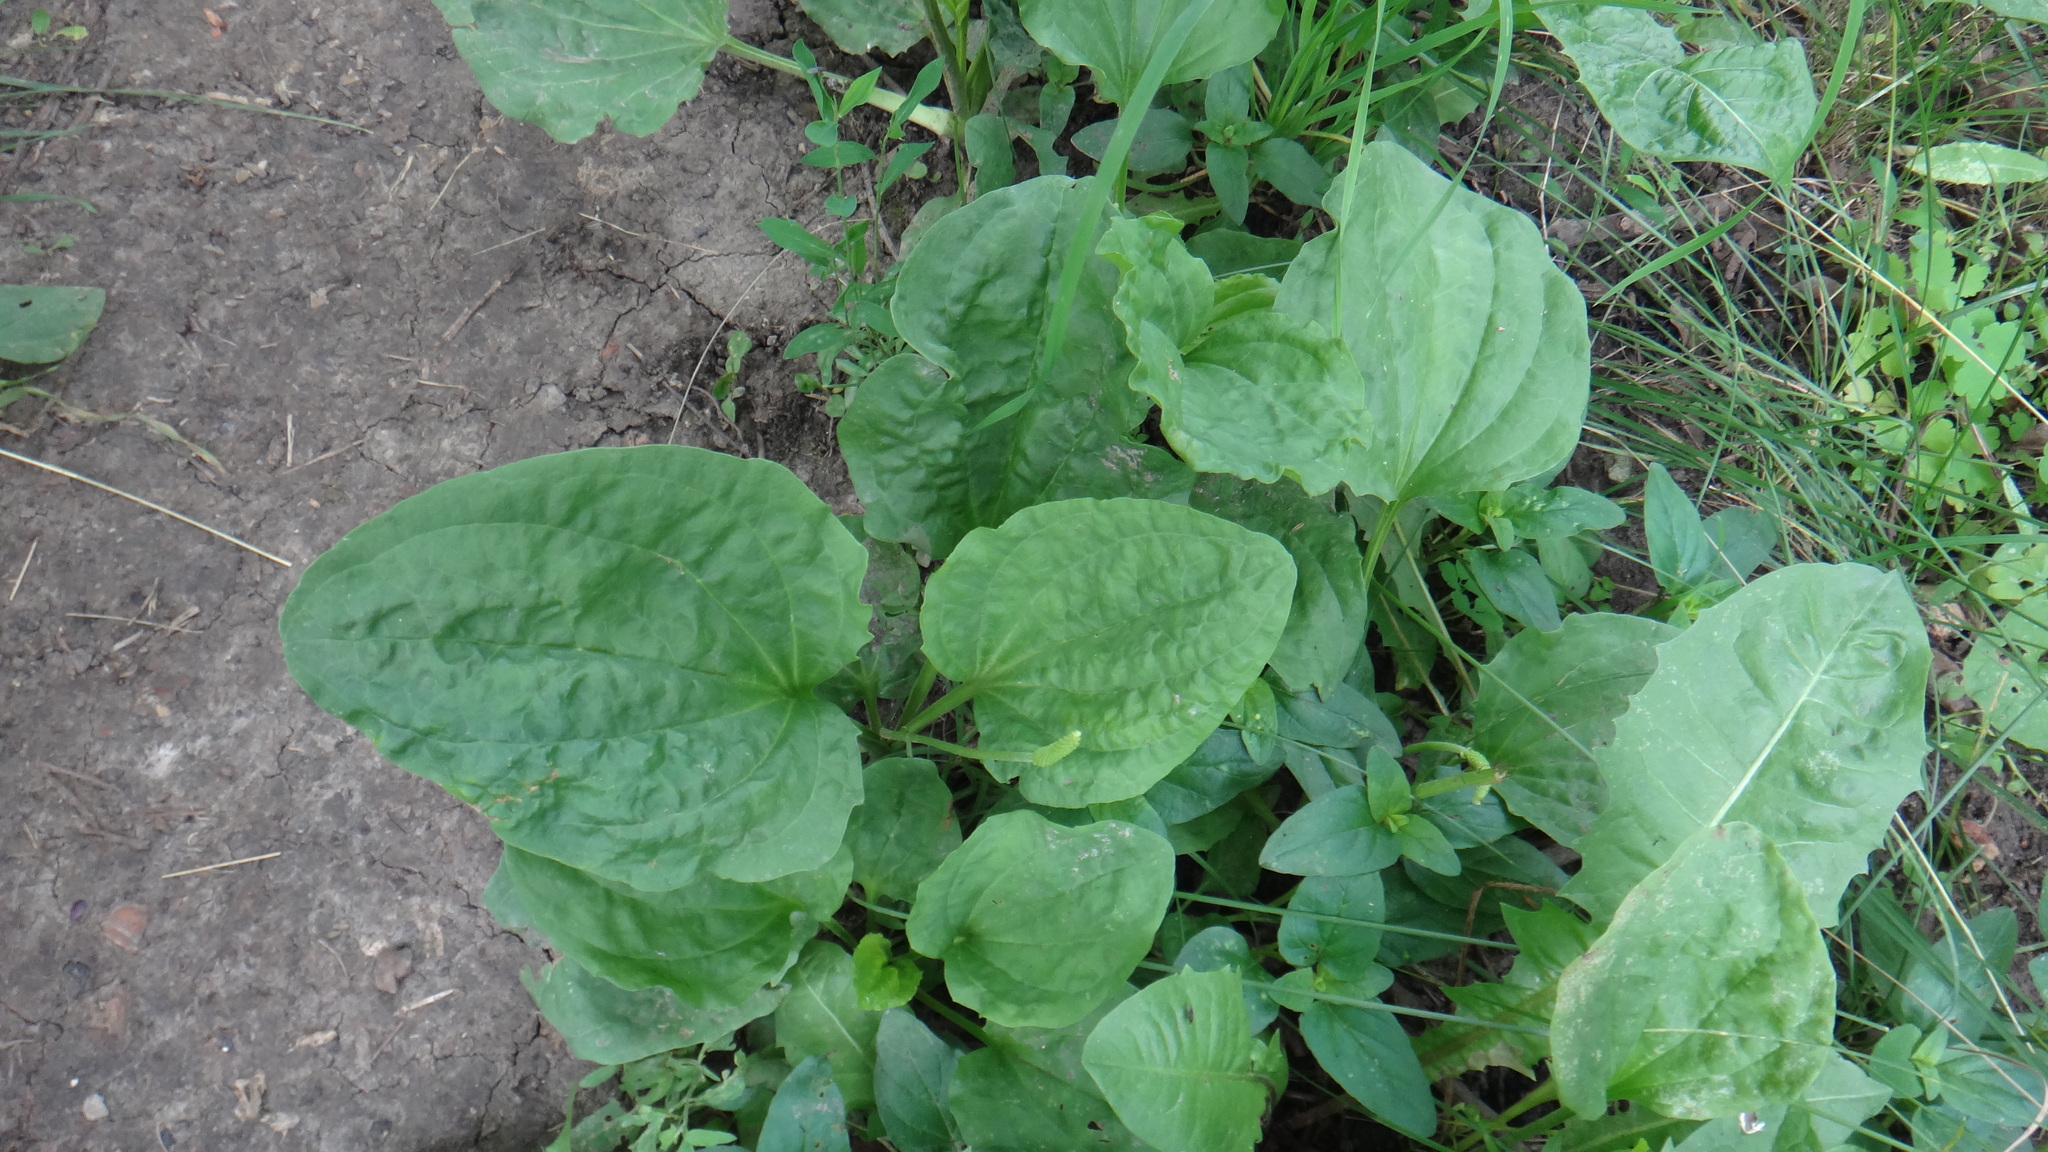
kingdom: Plantae
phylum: Tracheophyta
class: Magnoliopsida
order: Lamiales
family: Plantaginaceae
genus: Plantago
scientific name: Plantago major
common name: Common plantain
